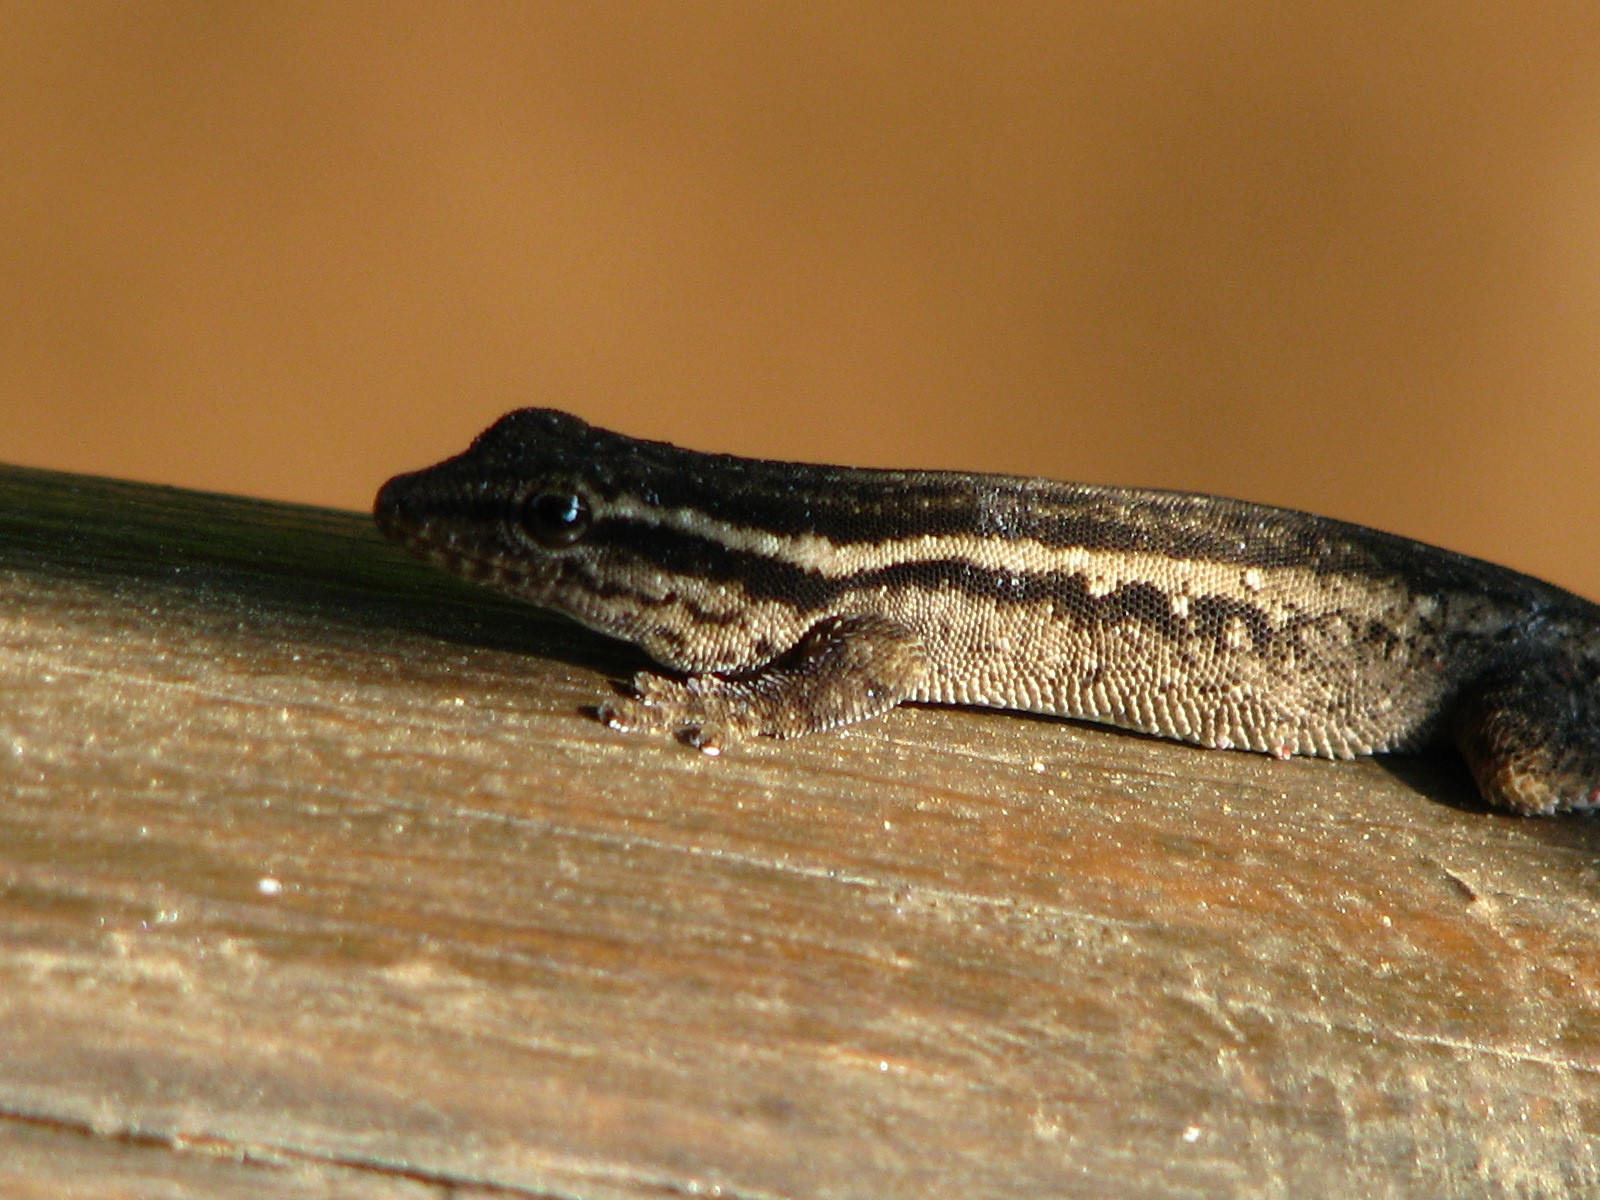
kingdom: Animalia
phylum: Chordata
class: Squamata
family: Gekkonidae
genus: Lygodactylus
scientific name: Lygodactylus capensis
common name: Cape dwarf gecko
